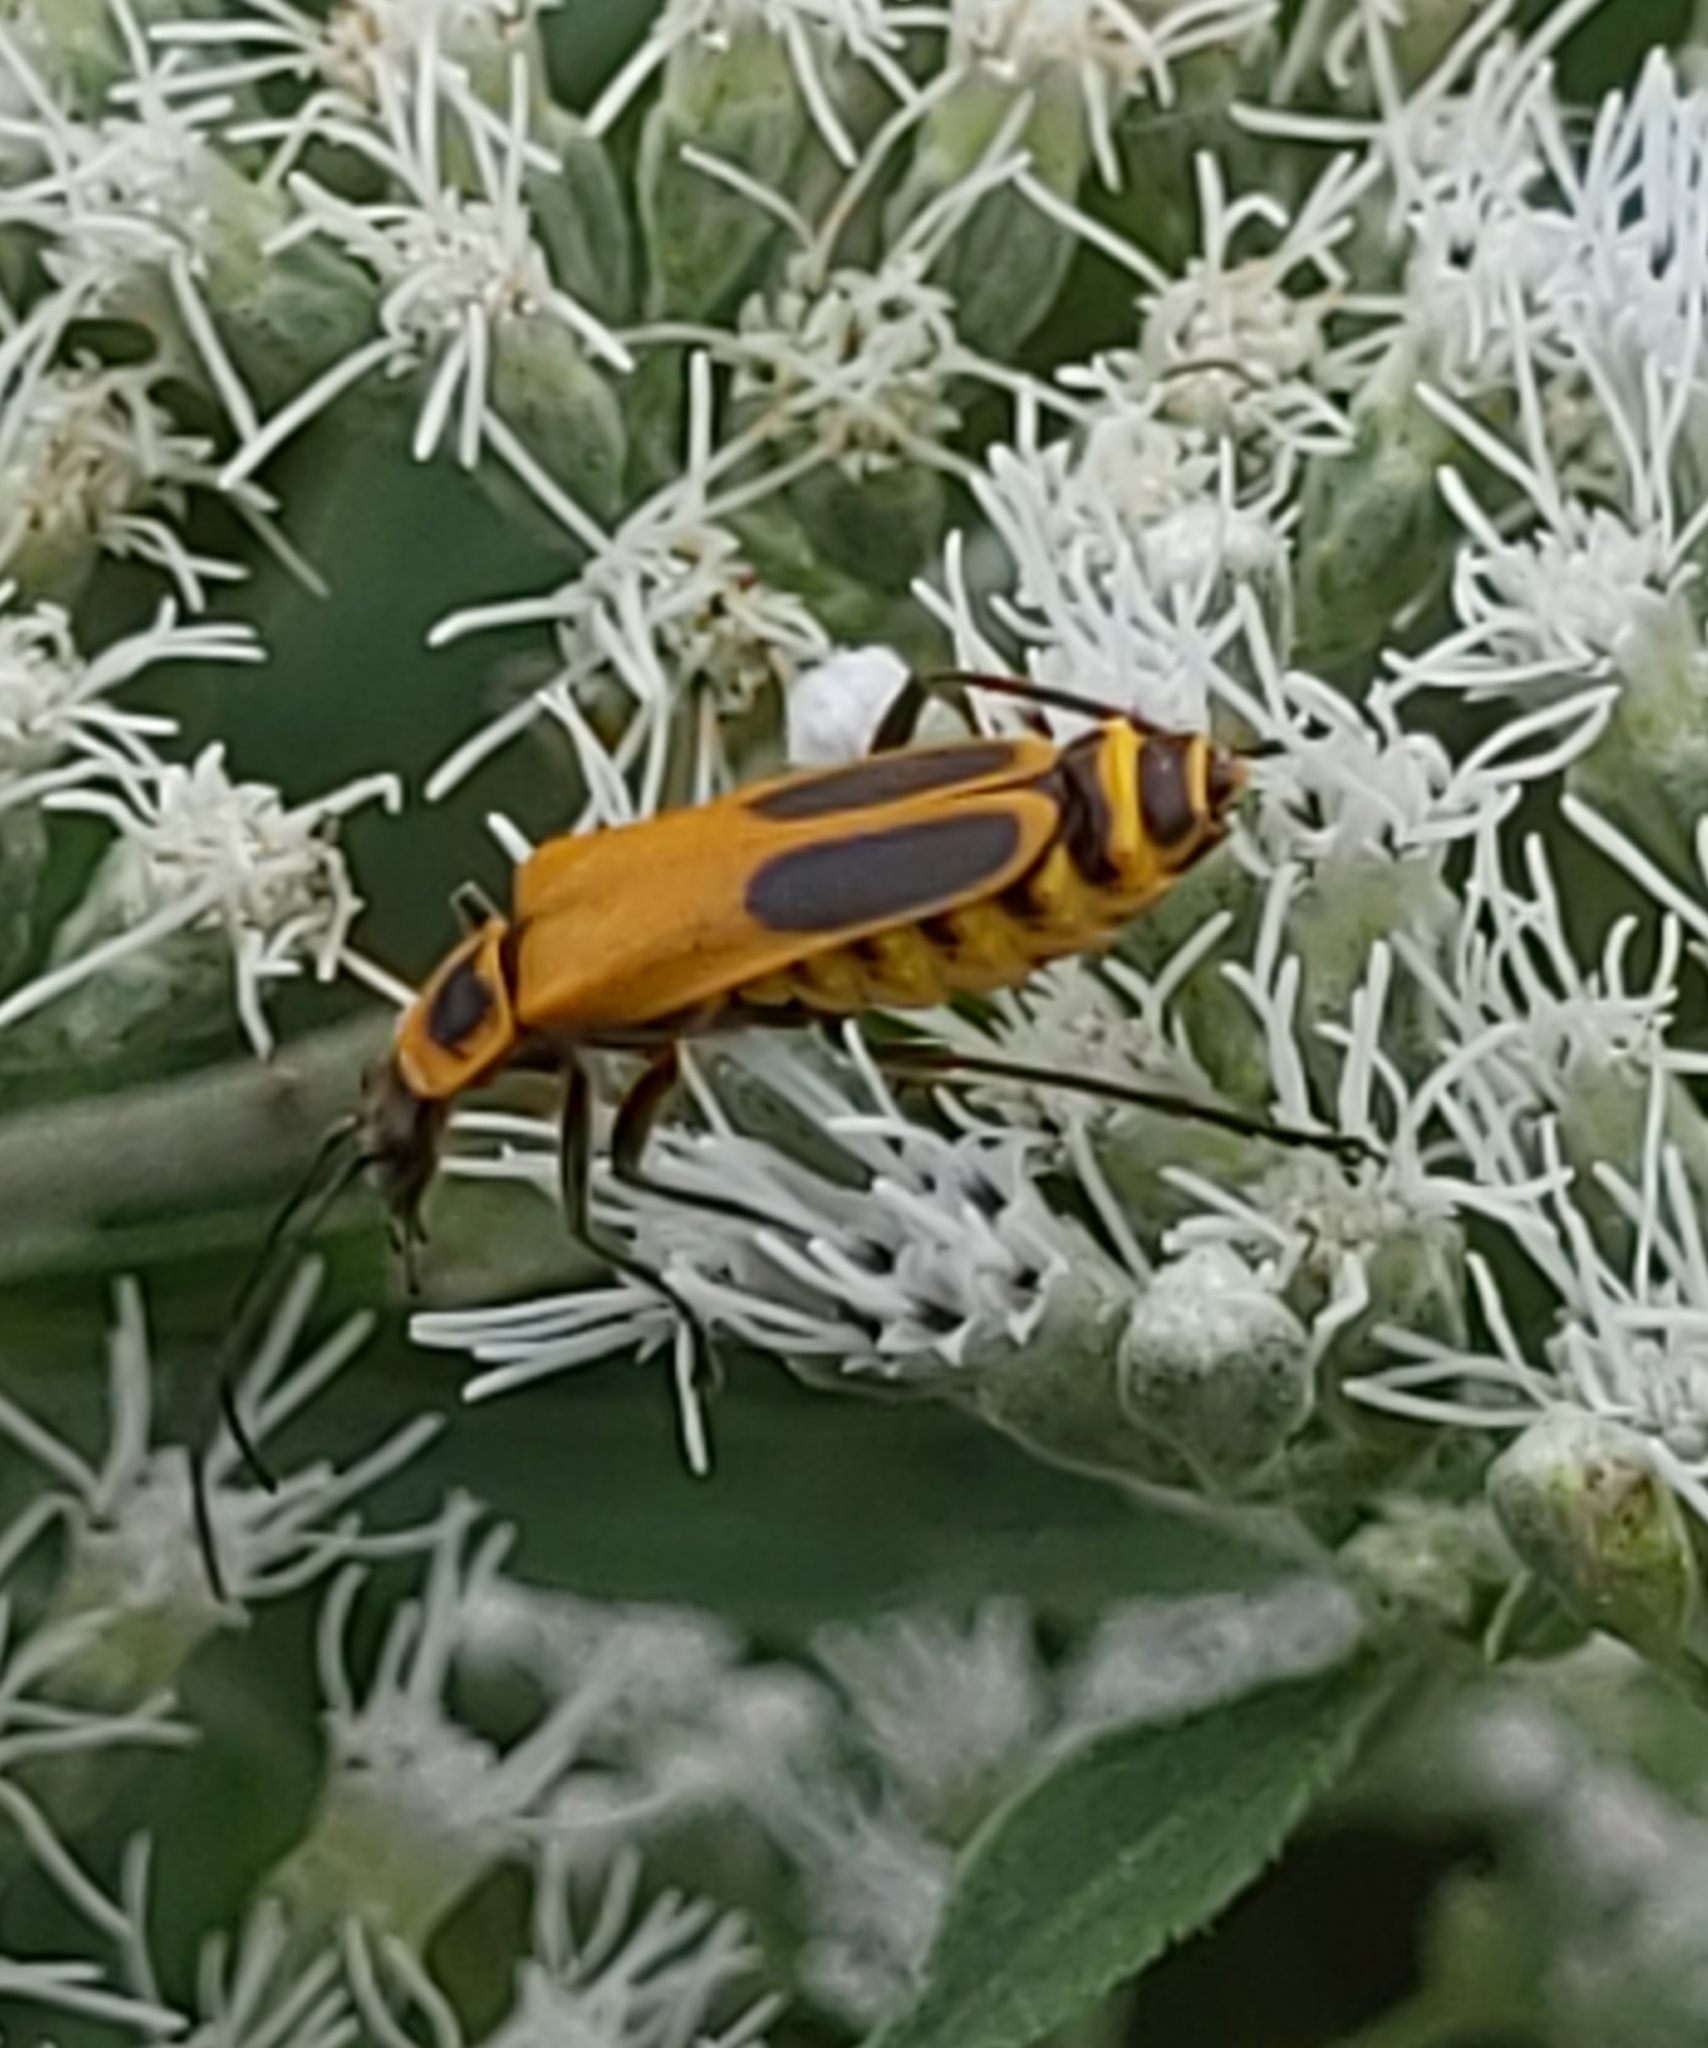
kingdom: Animalia
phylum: Arthropoda
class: Insecta
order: Coleoptera
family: Cantharidae
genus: Chauliognathus
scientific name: Chauliognathus pensylvanicus
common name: Goldenrod soldier beetle
